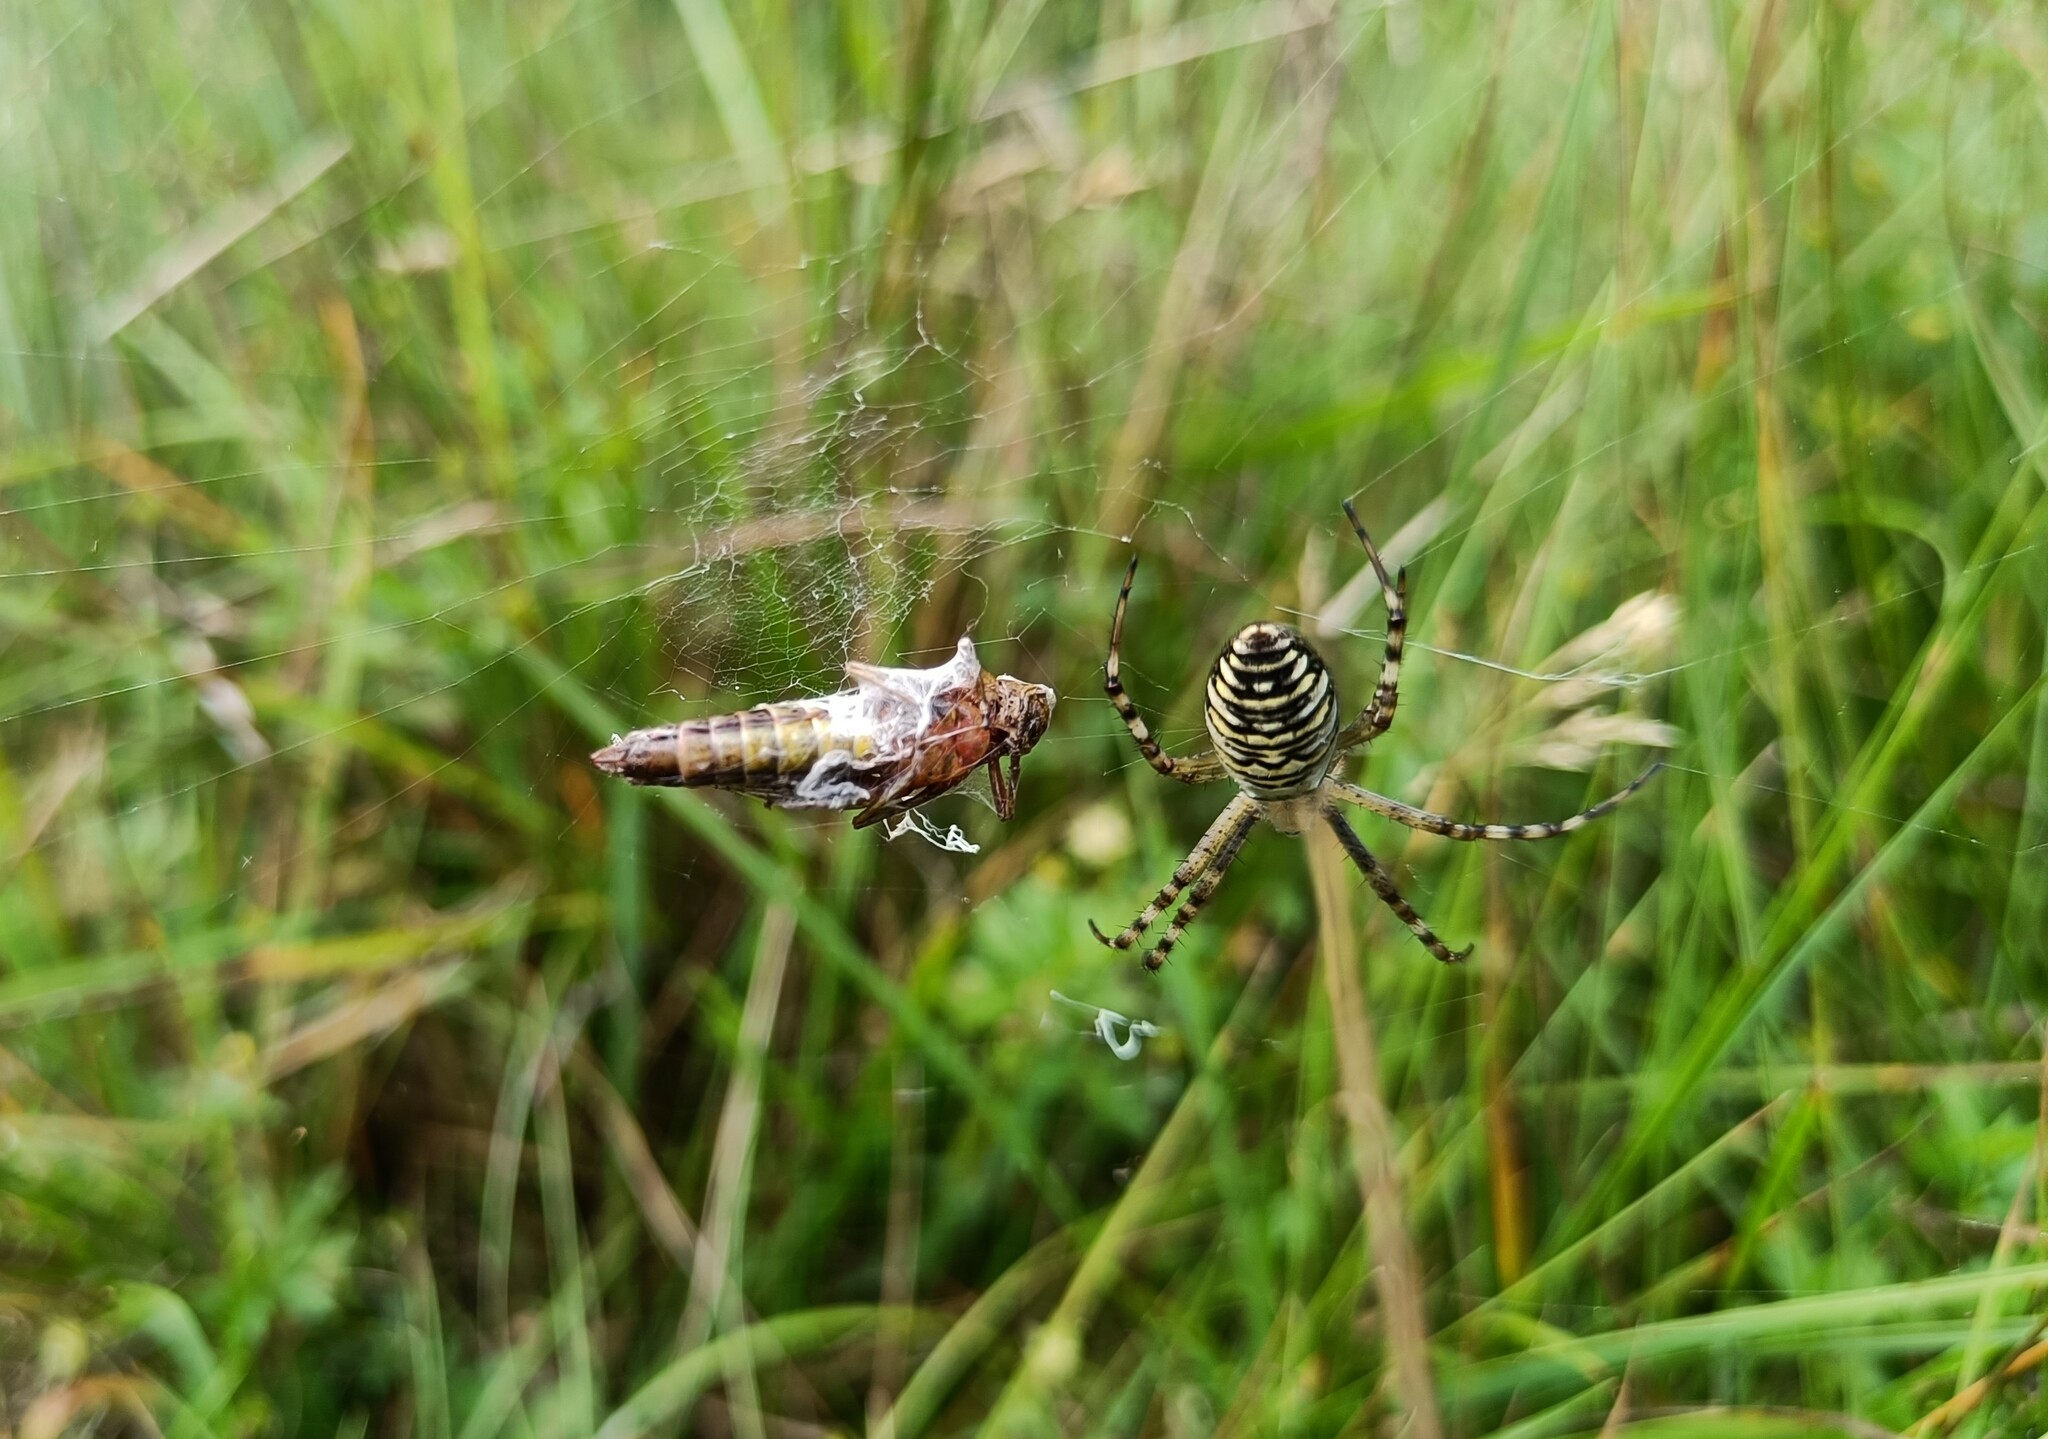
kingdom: Animalia
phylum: Arthropoda
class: Arachnida
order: Araneae
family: Araneidae
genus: Argiope
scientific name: Argiope bruennichi
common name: Wasp spider
